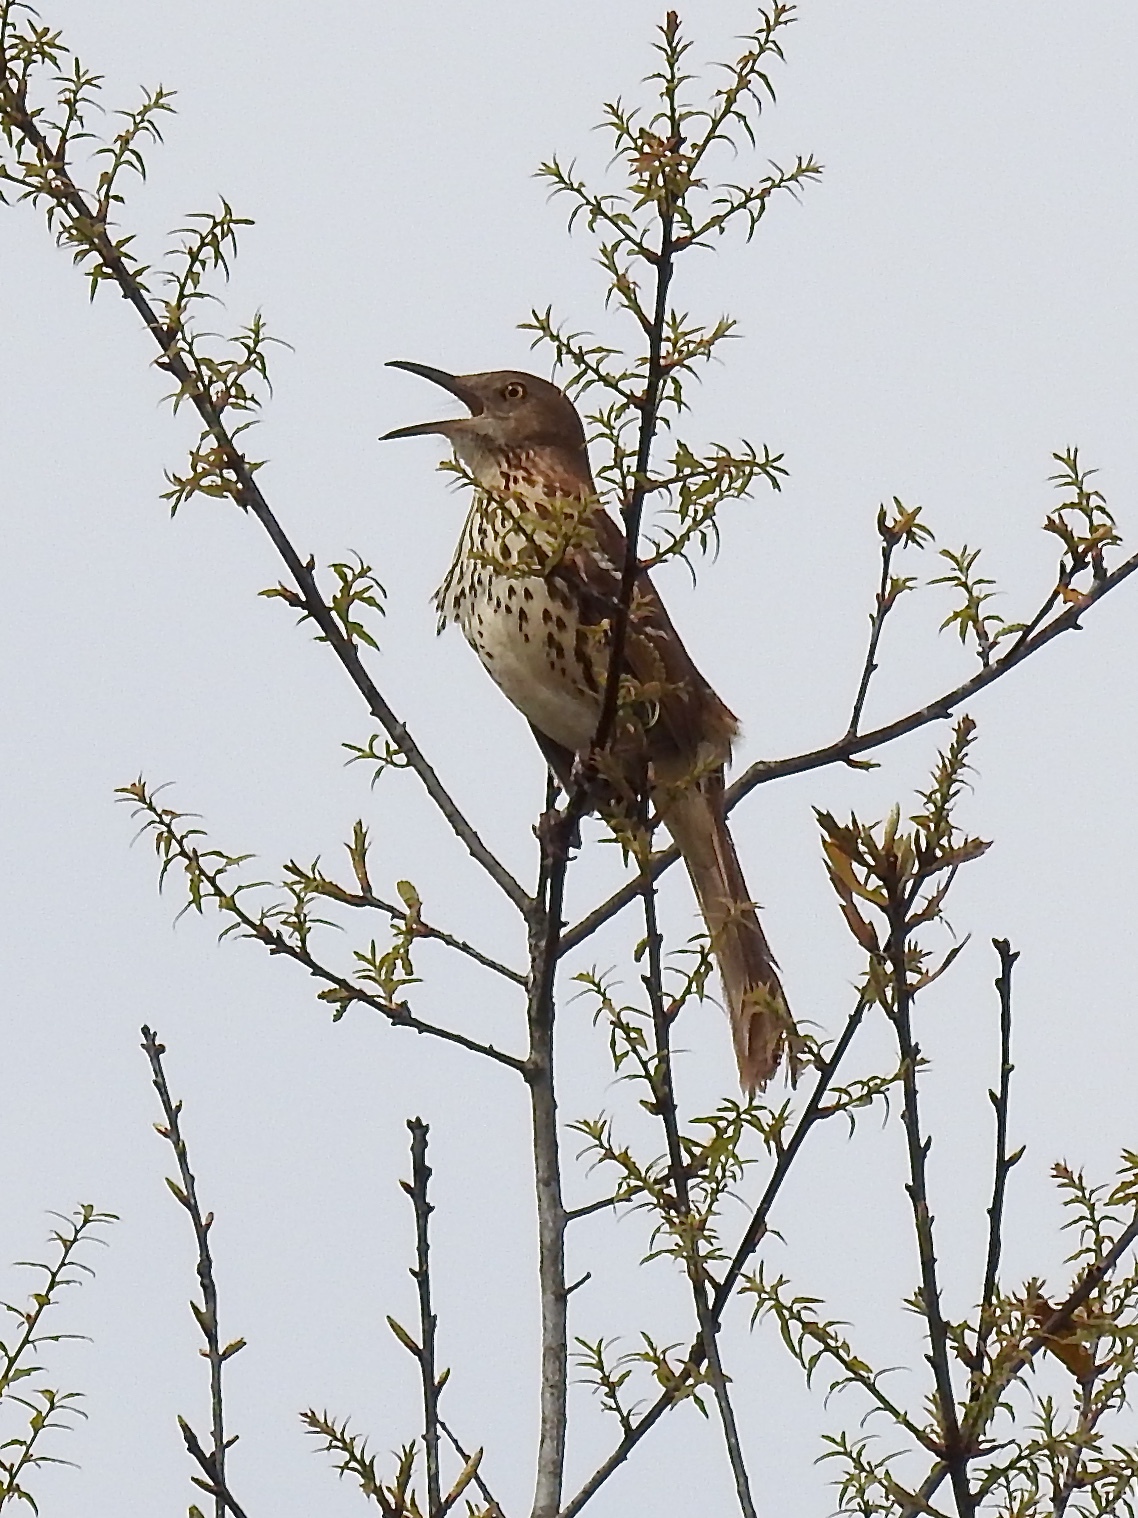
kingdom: Animalia
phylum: Chordata
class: Aves
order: Passeriformes
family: Mimidae
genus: Toxostoma
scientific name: Toxostoma rufum
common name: Brown thrasher
